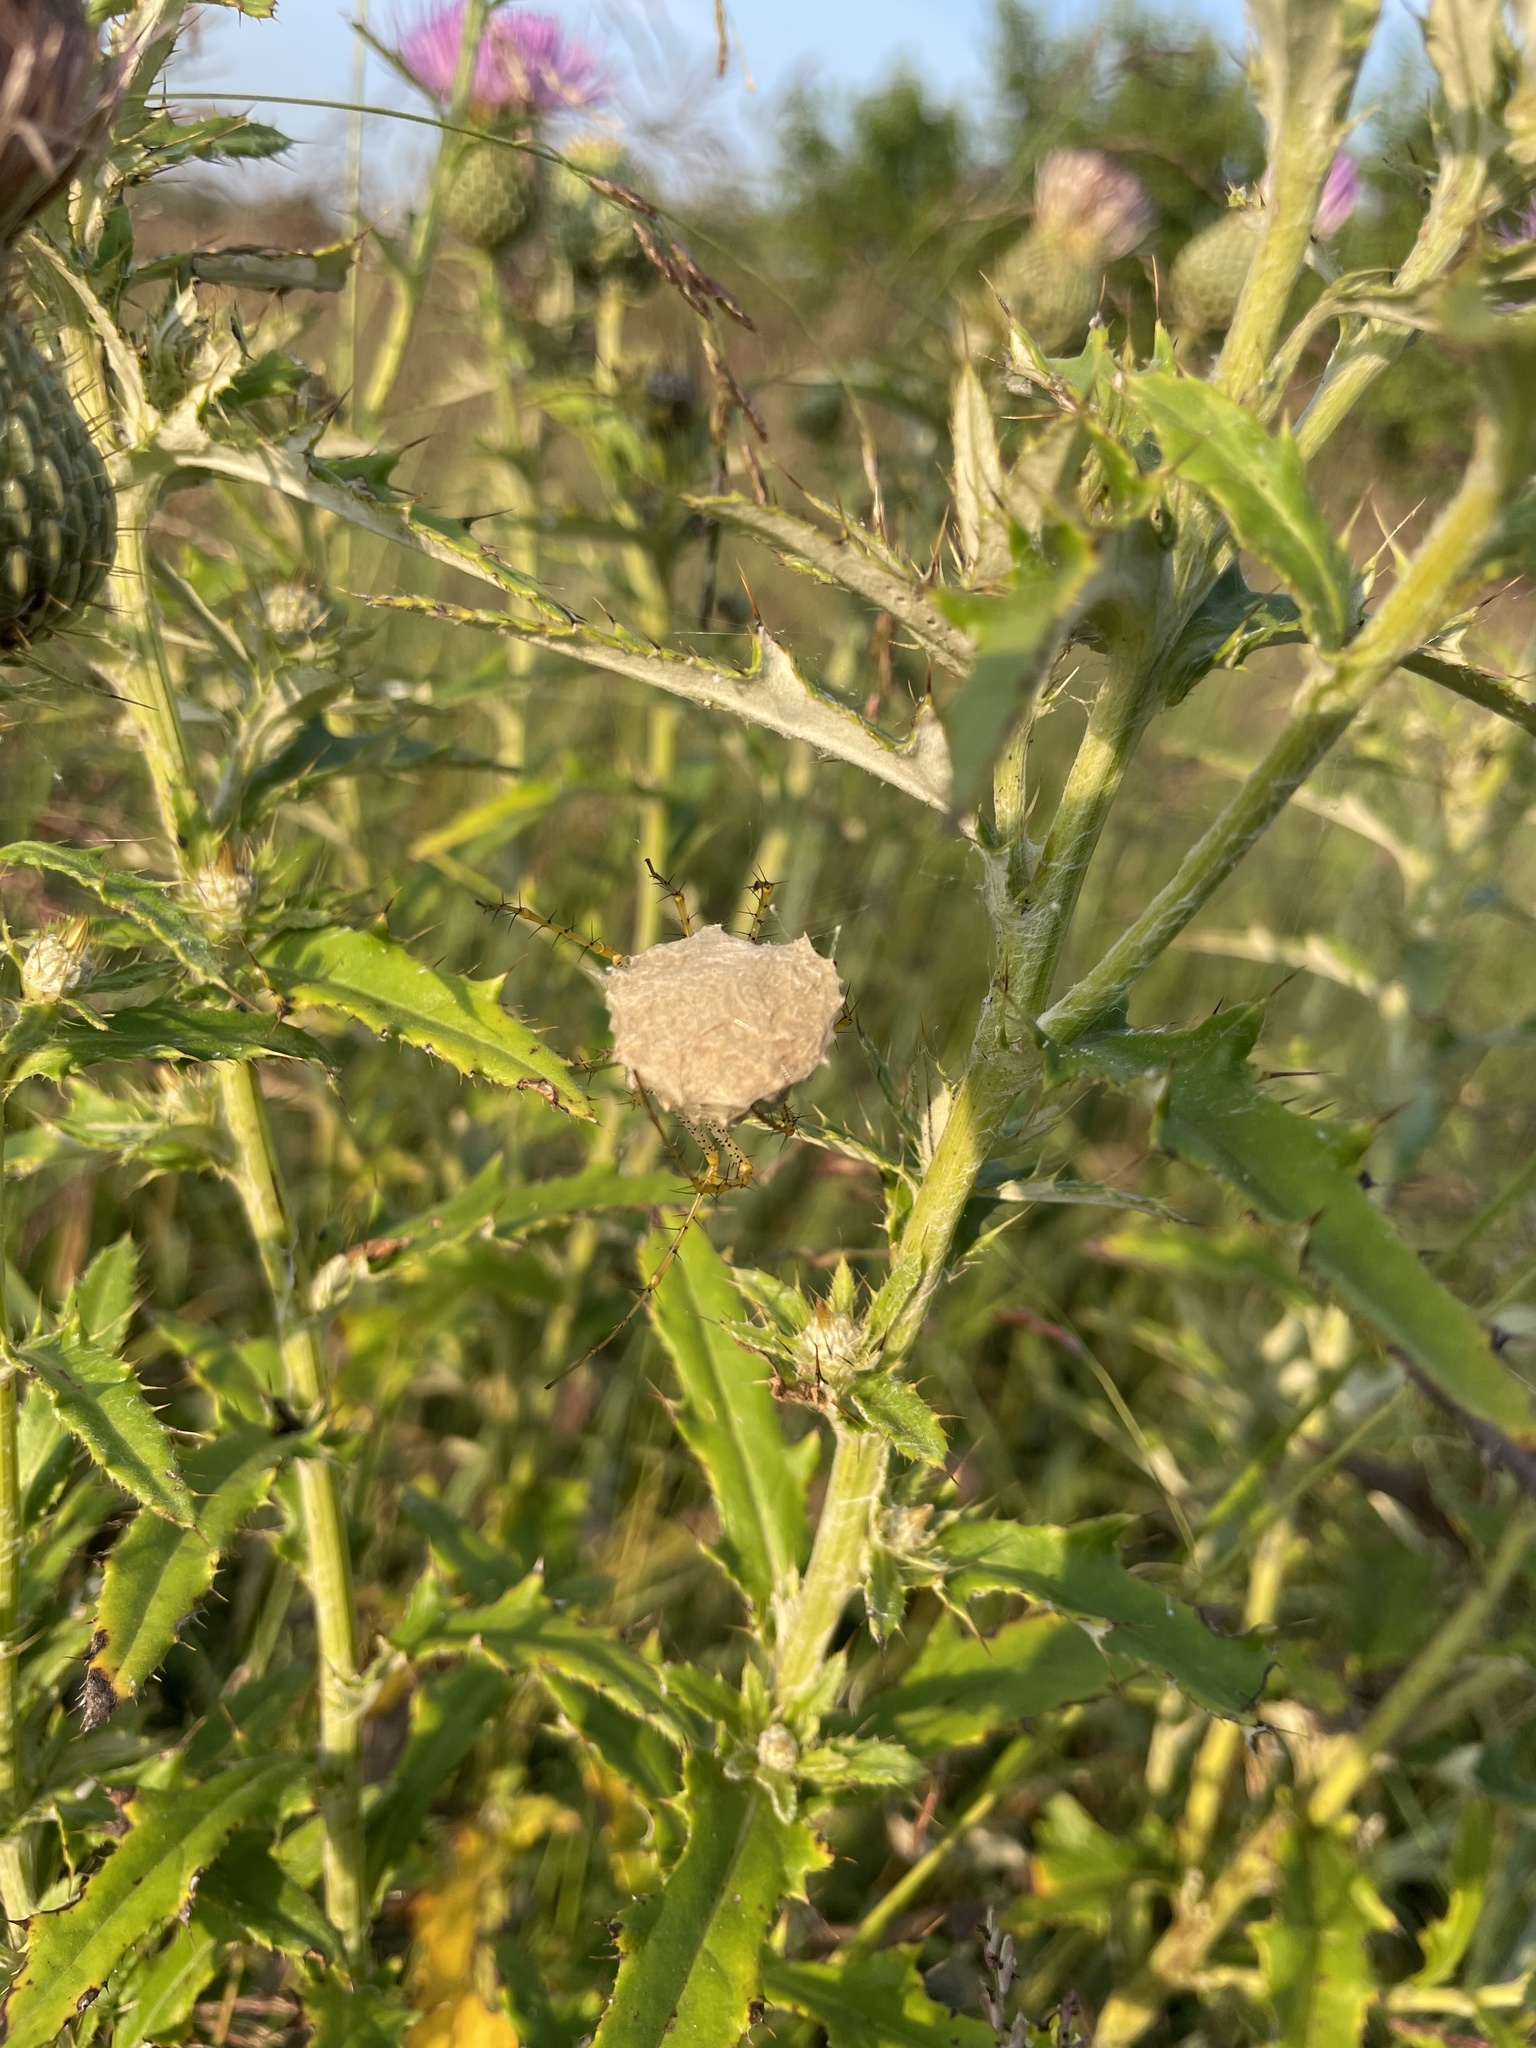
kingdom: Animalia
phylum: Arthropoda
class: Arachnida
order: Araneae
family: Oxyopidae
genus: Peucetia
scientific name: Peucetia viridans
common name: Lynx spiders
